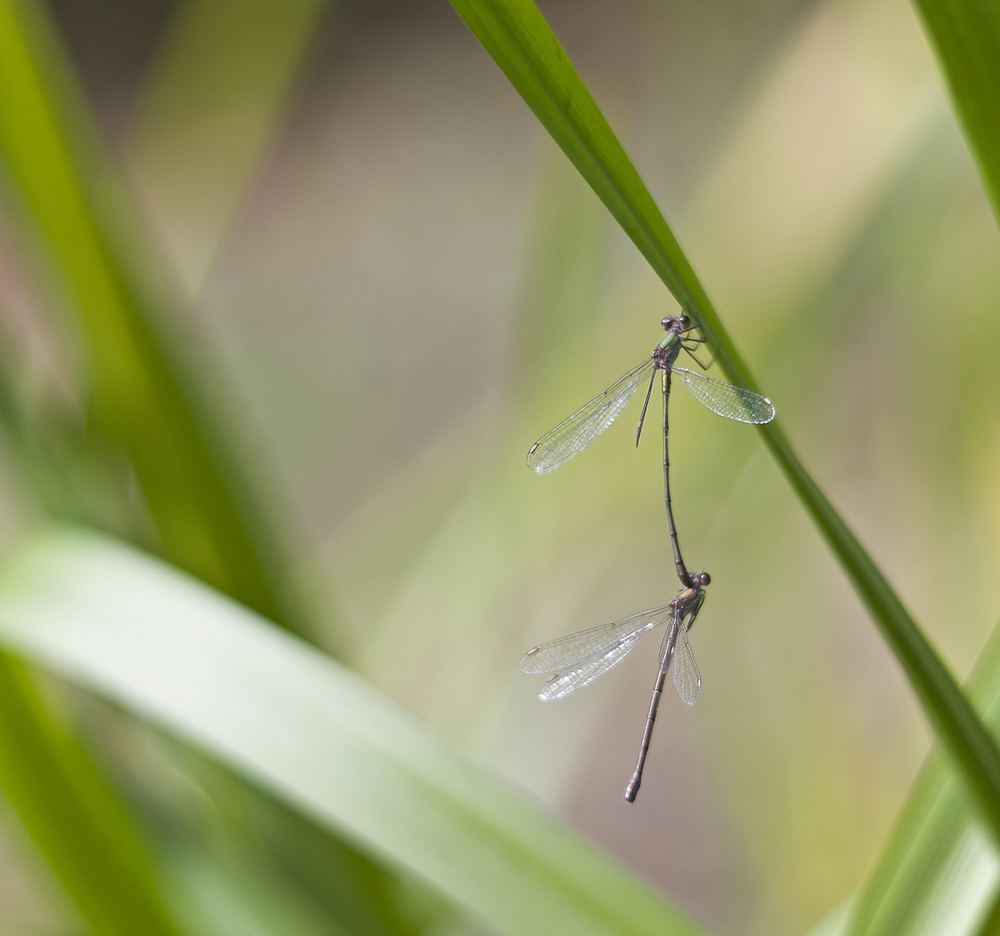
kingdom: Animalia
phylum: Arthropoda
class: Insecta
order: Odonata
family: Lestidae
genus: Chalcolestes
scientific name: Chalcolestes viridis
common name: Green emerald damselfly
